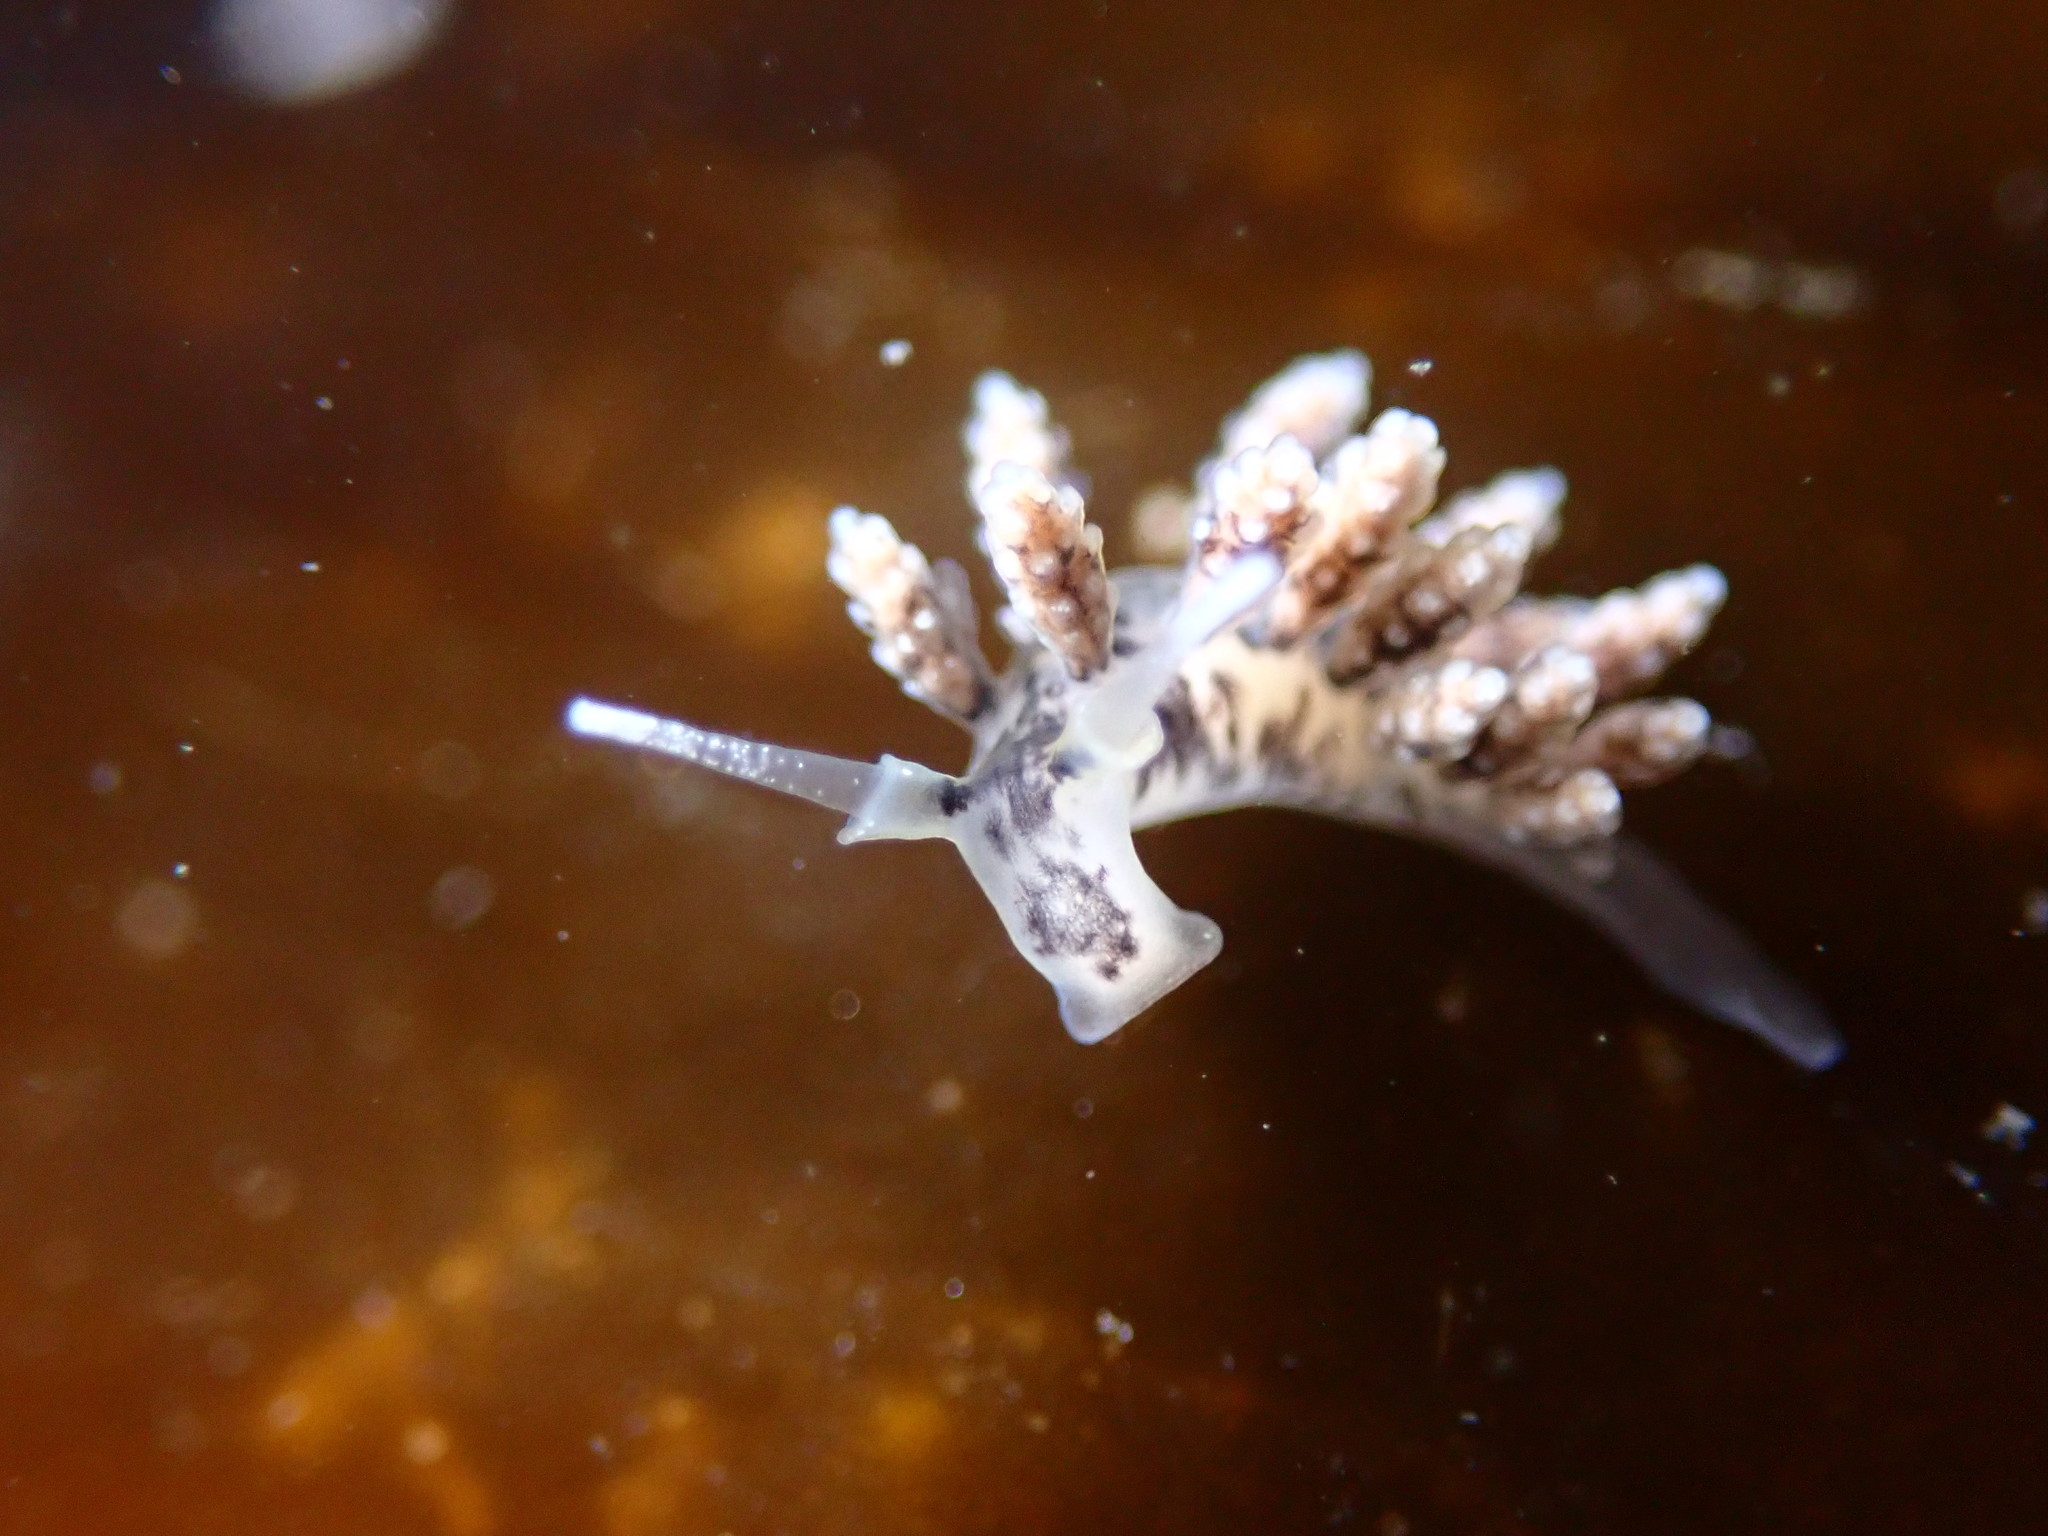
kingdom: Animalia
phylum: Mollusca
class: Gastropoda
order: Nudibranchia
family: Dotidae
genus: Doto
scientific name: Doto kya
